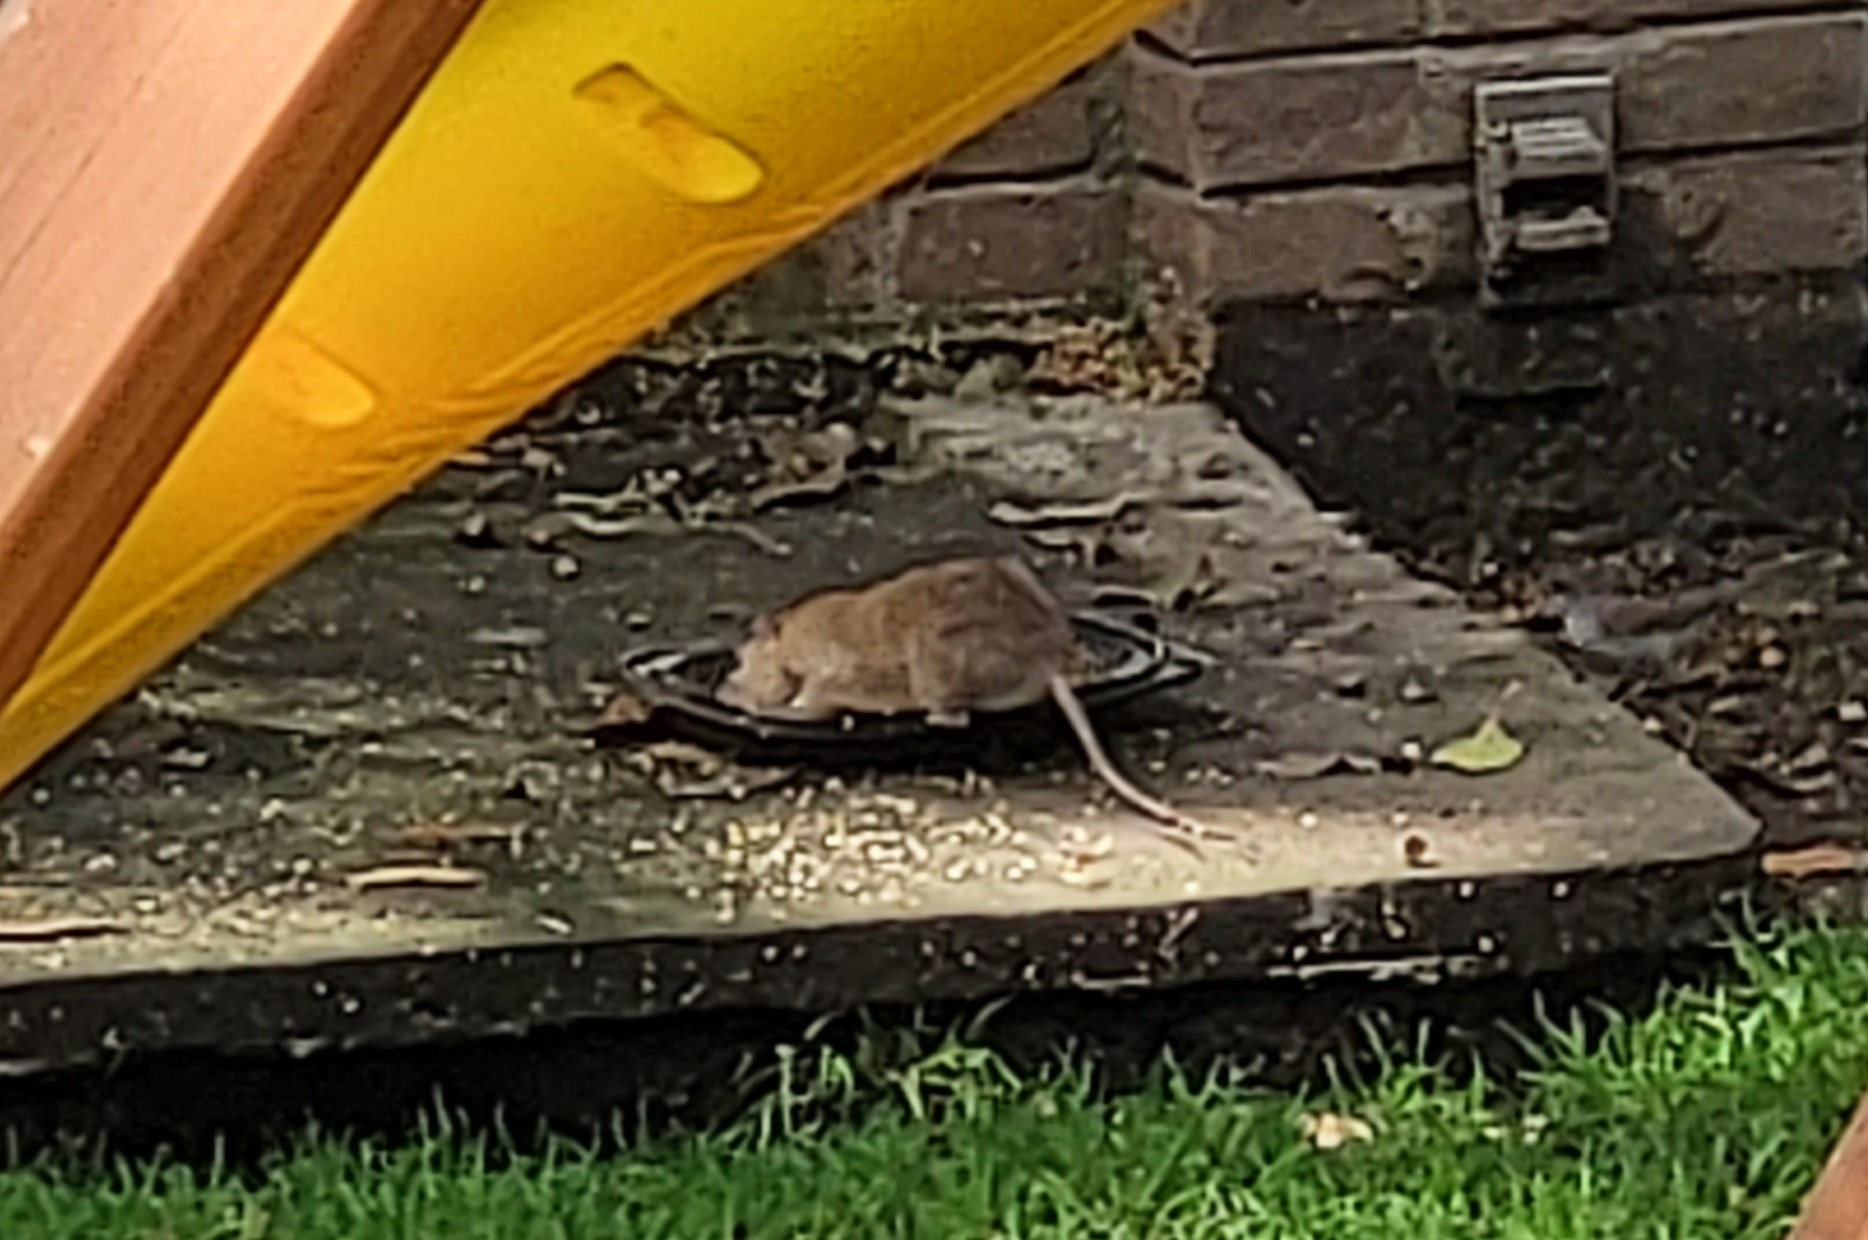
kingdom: Animalia
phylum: Chordata
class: Mammalia
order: Rodentia
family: Muridae
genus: Rattus
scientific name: Rattus norvegicus
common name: Brown rat
